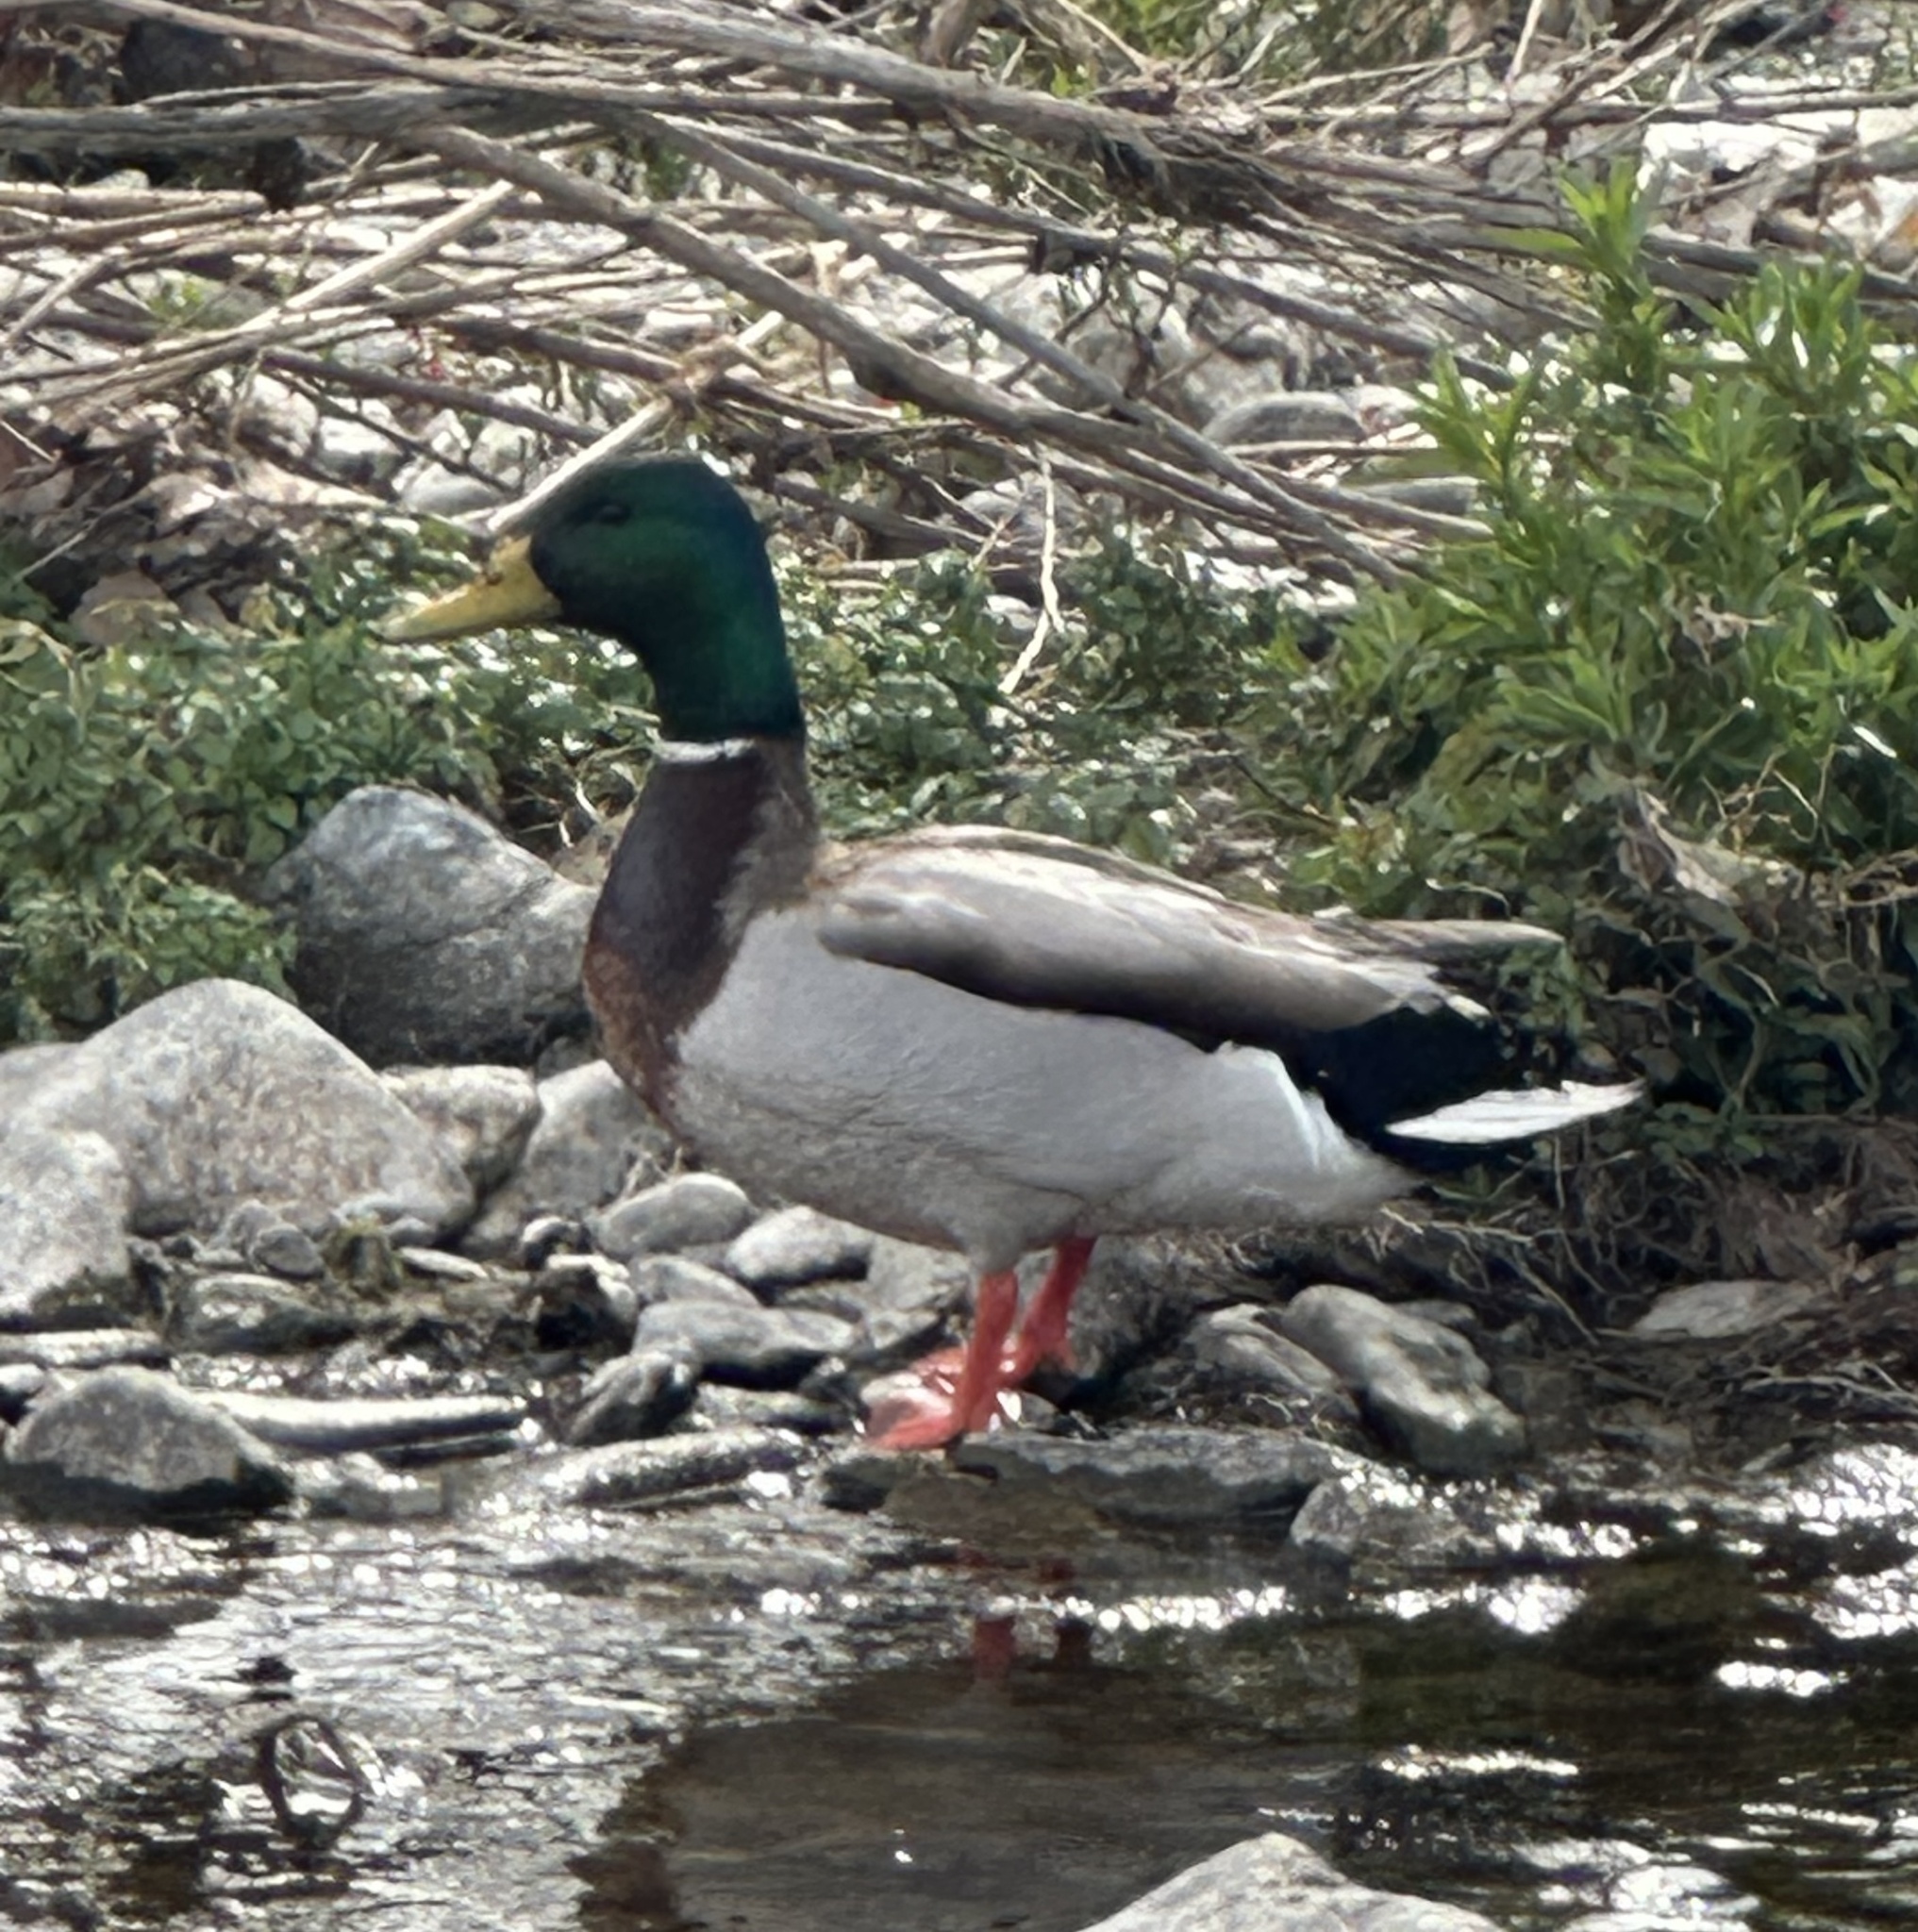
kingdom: Animalia
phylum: Chordata
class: Aves
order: Anseriformes
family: Anatidae
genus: Anas
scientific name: Anas platyrhynchos
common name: Mallard
